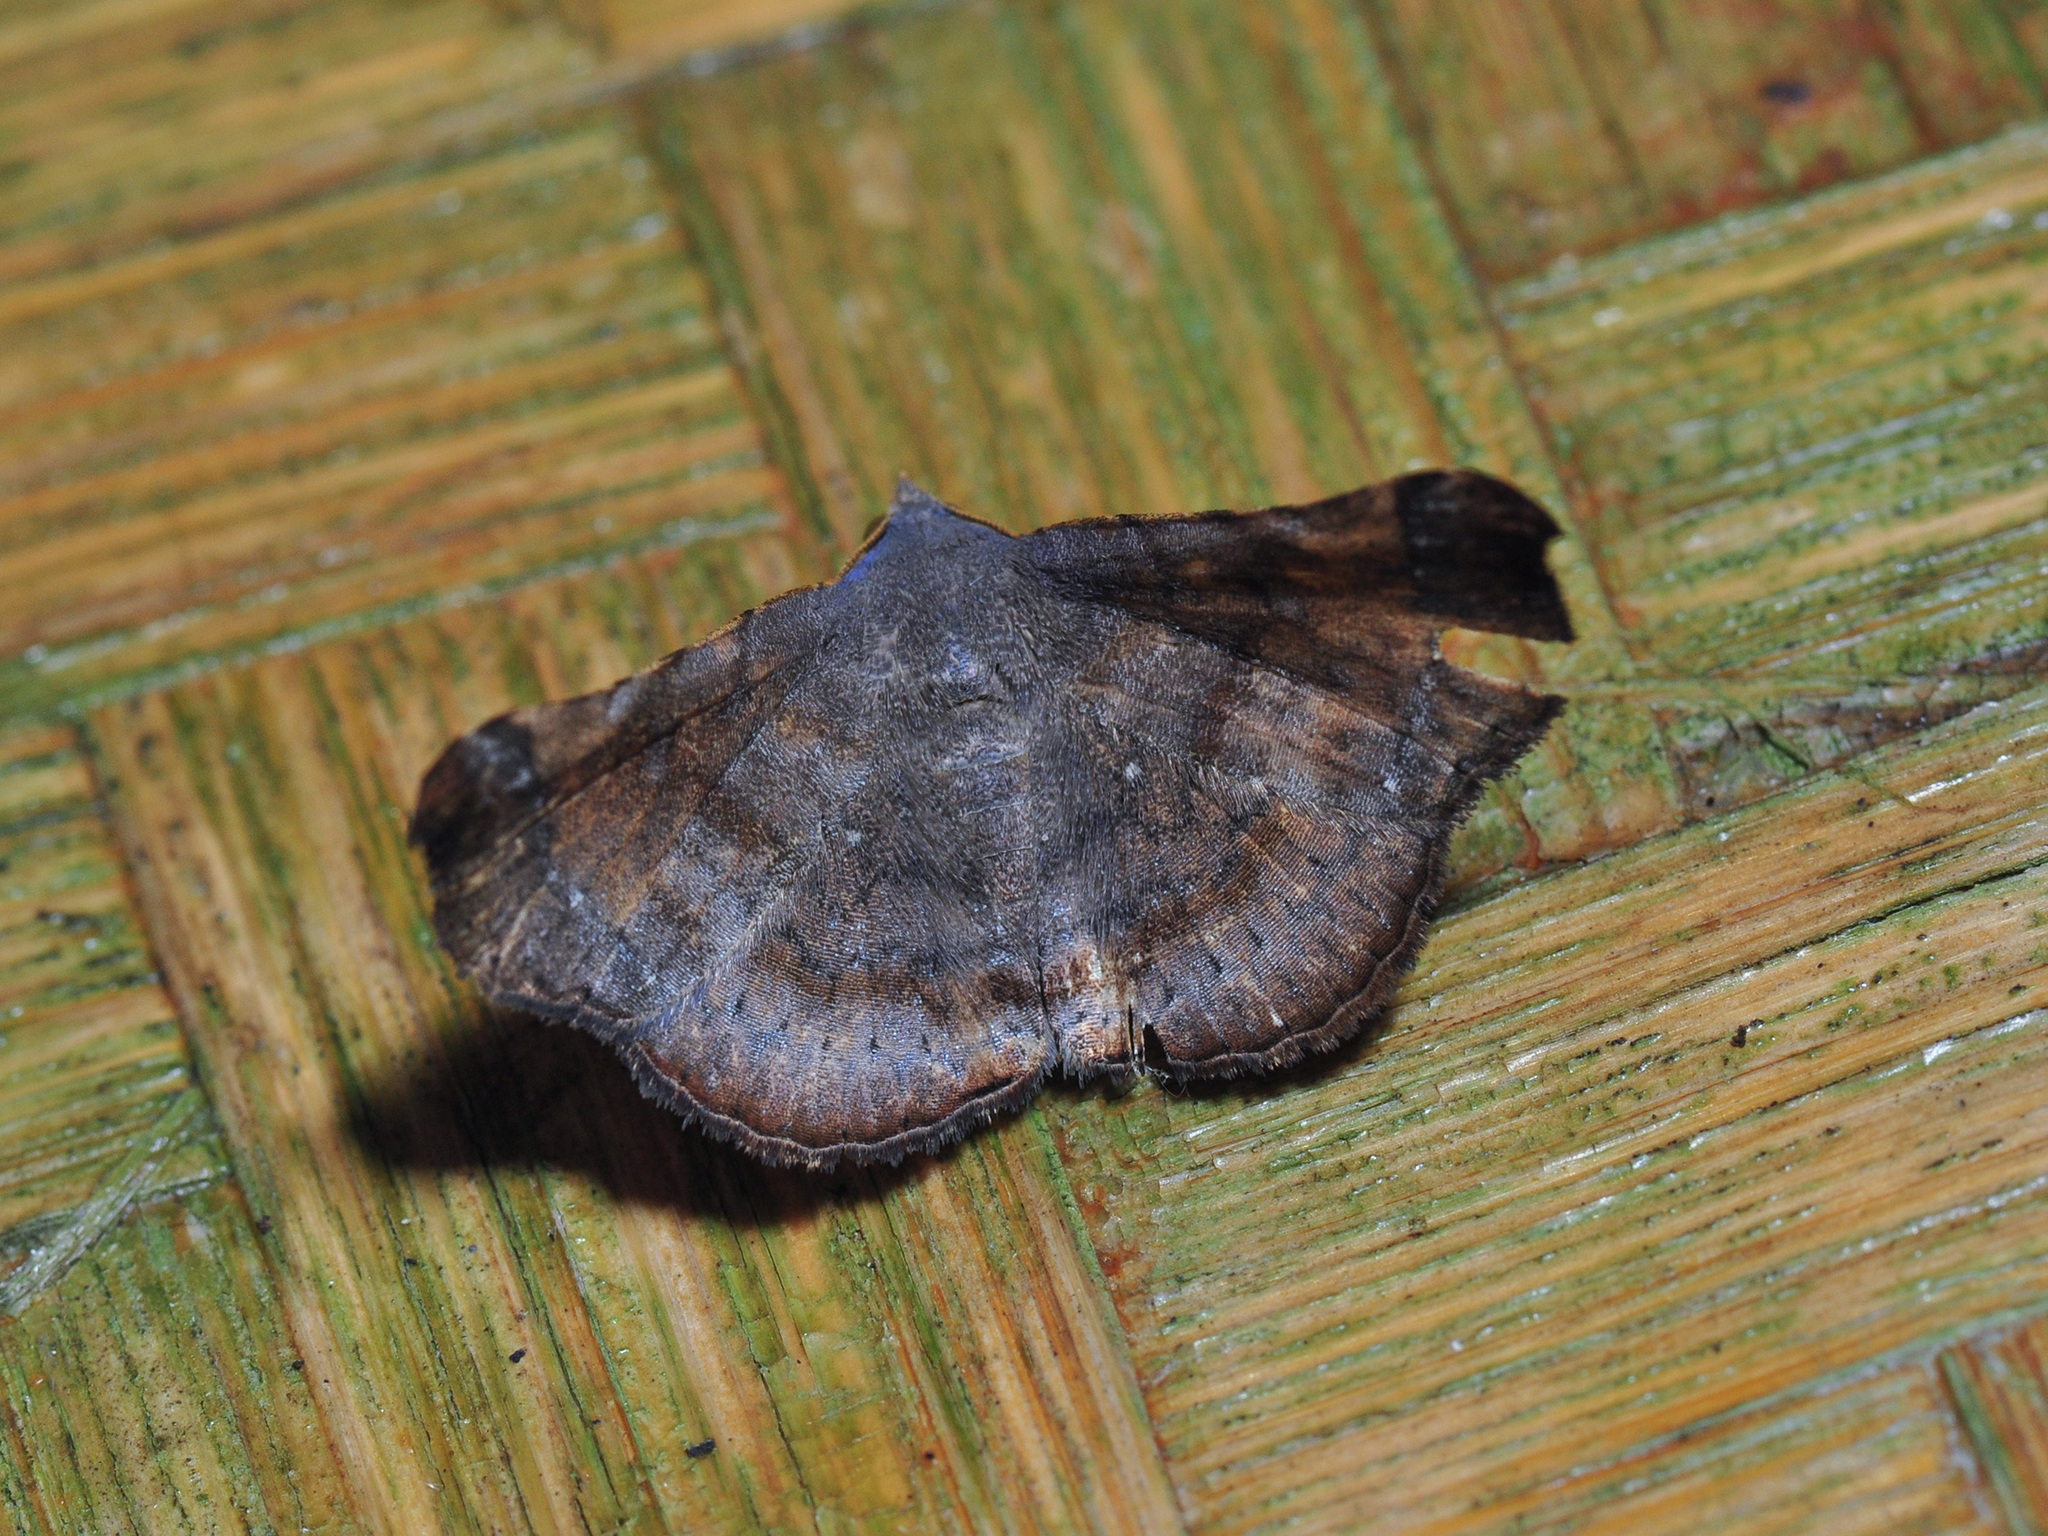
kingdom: Animalia
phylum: Arthropoda
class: Insecta
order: Lepidoptera
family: Erebidae
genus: Pleurona
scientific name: Pleurona falcata
